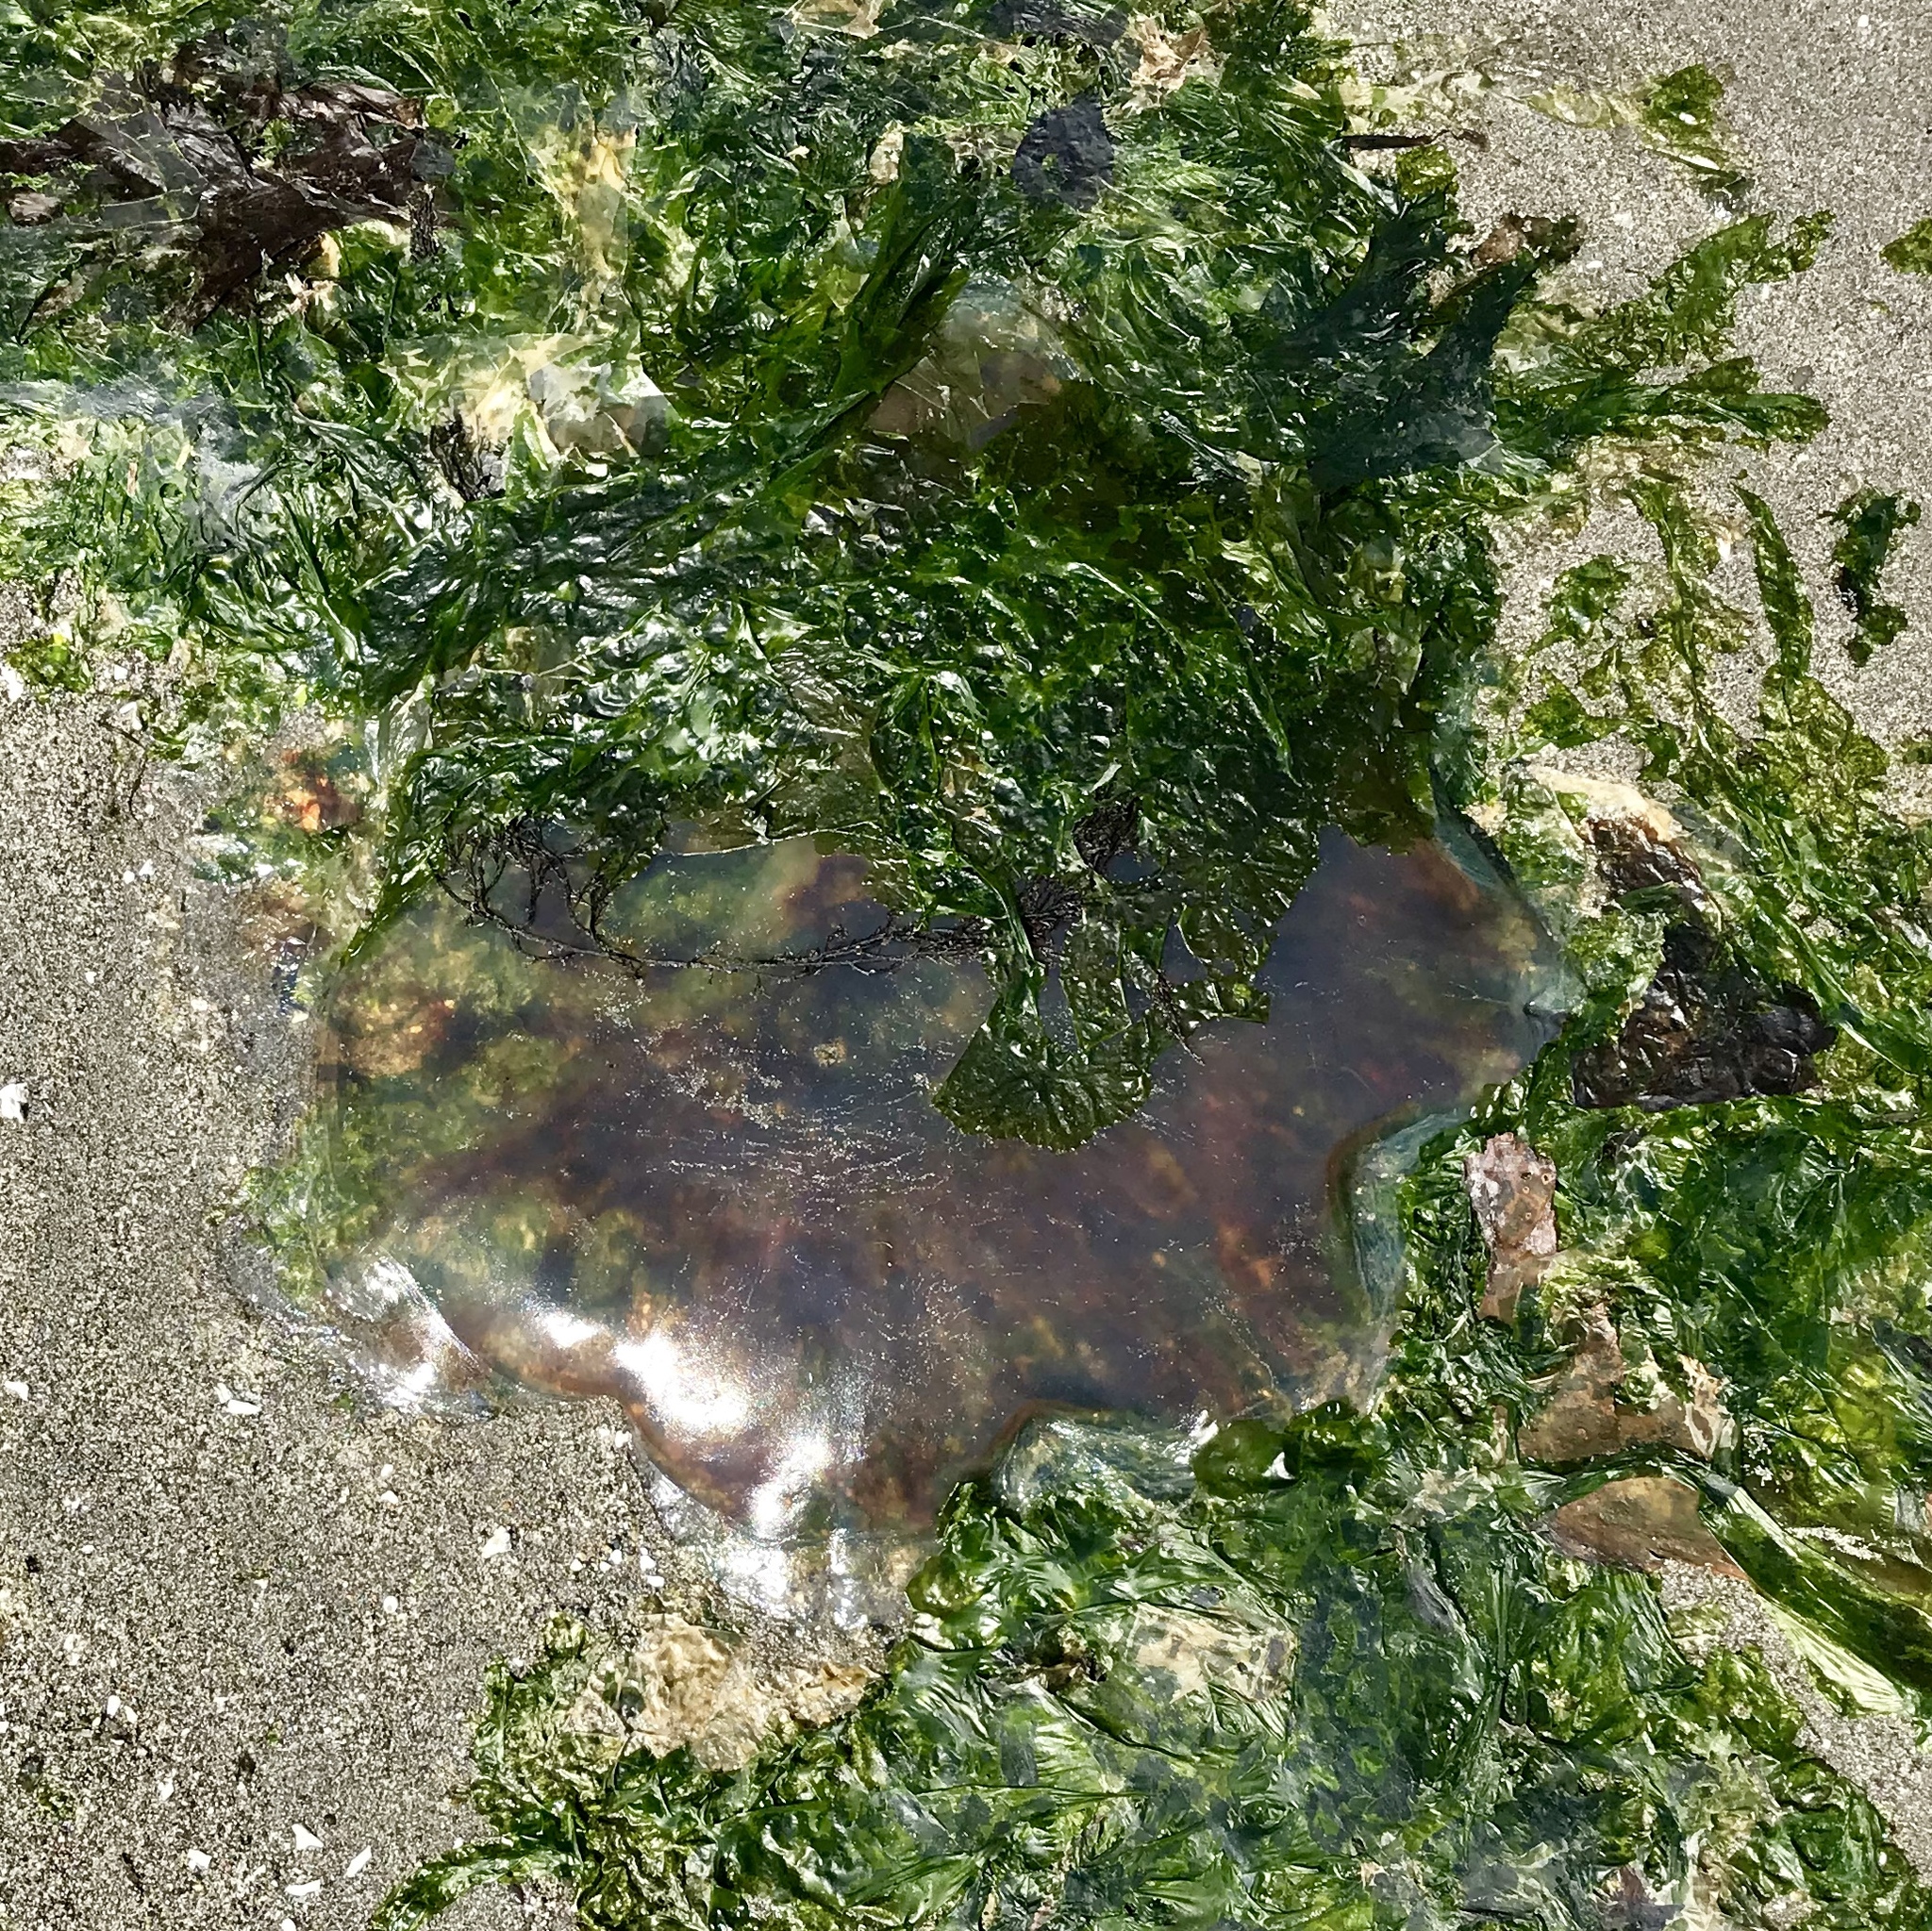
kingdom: Animalia
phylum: Cnidaria
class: Scyphozoa
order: Semaeostomeae
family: Cyaneidae
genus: Cyanea
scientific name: Cyanea ferruginea
